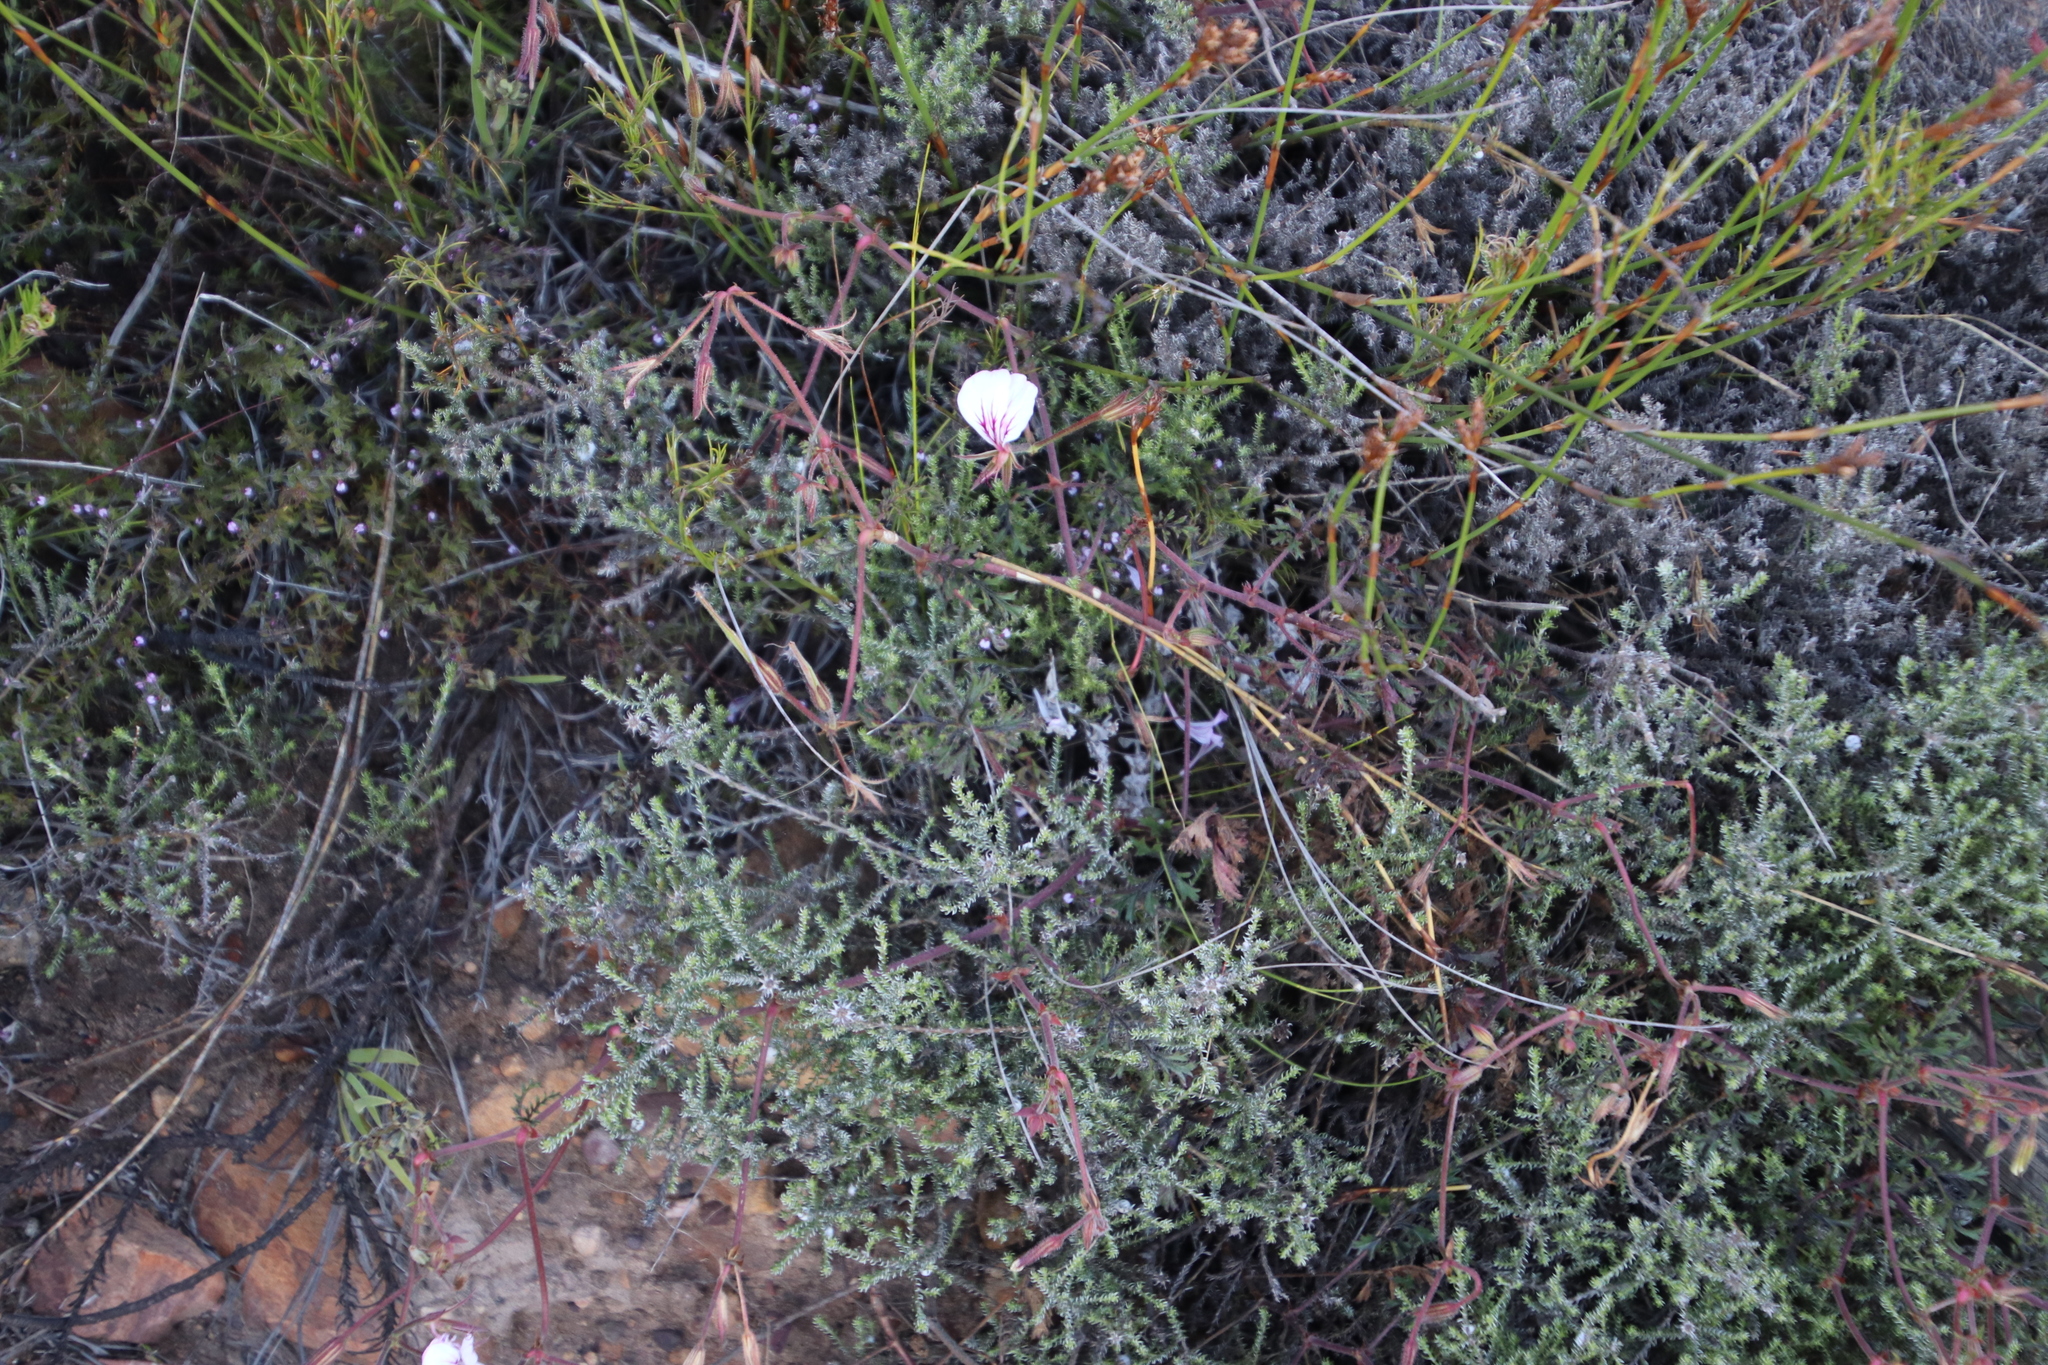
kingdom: Plantae
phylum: Tracheophyta
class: Magnoliopsida
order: Geraniales
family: Geraniaceae
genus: Pelargonium
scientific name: Pelargonium longicaule
